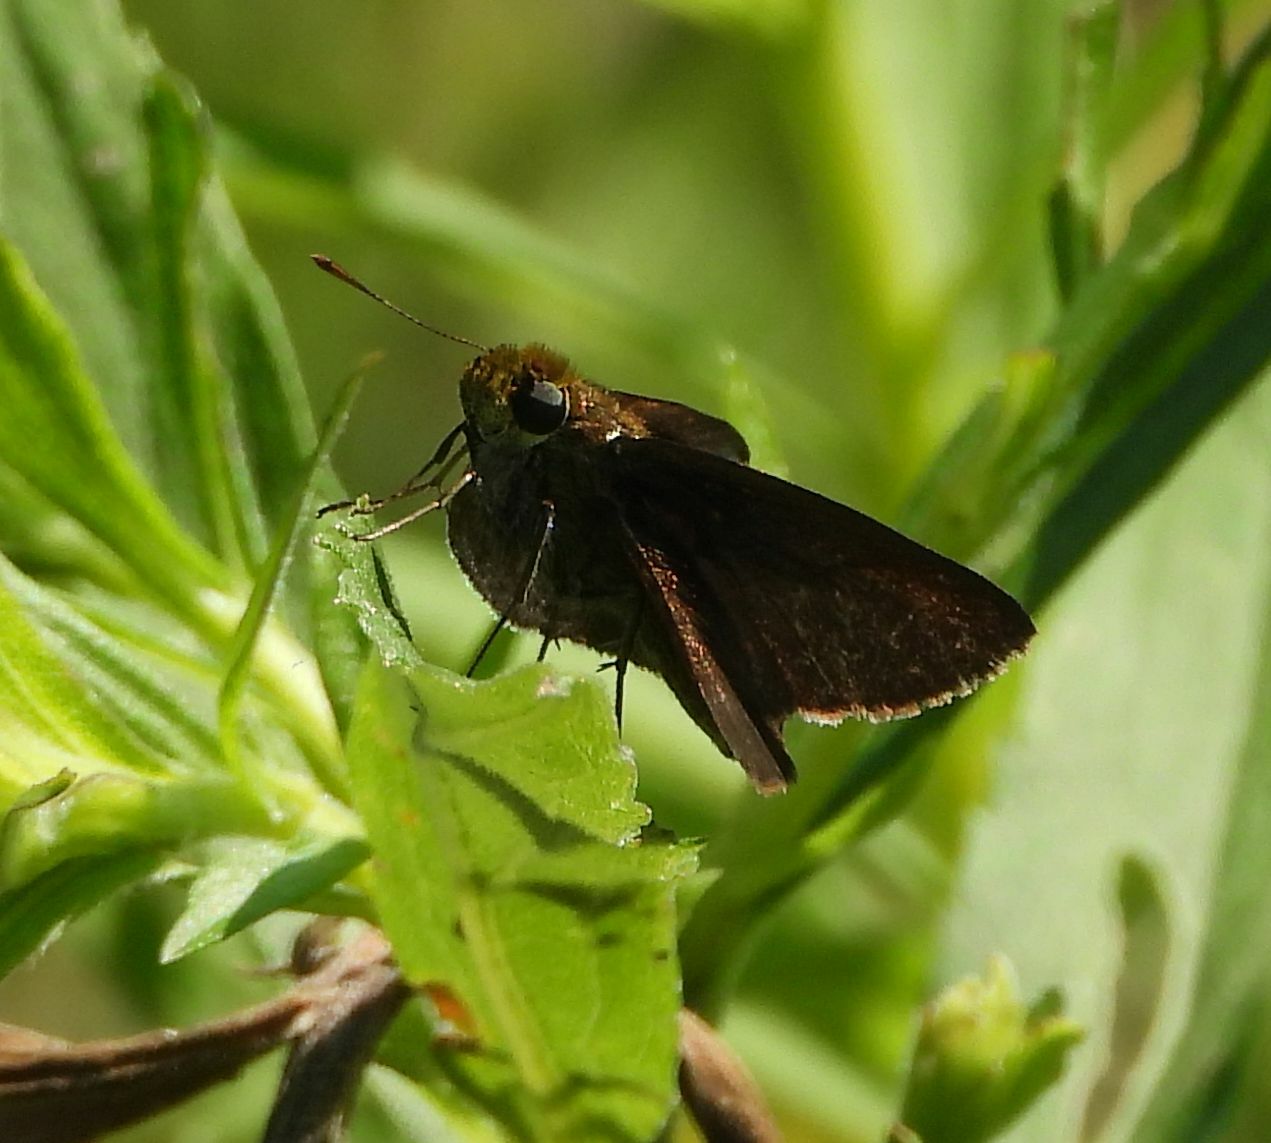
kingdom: Animalia
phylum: Arthropoda
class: Insecta
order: Lepidoptera
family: Hesperiidae
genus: Euphyes
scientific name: Euphyes vestris
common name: Dun skipper
